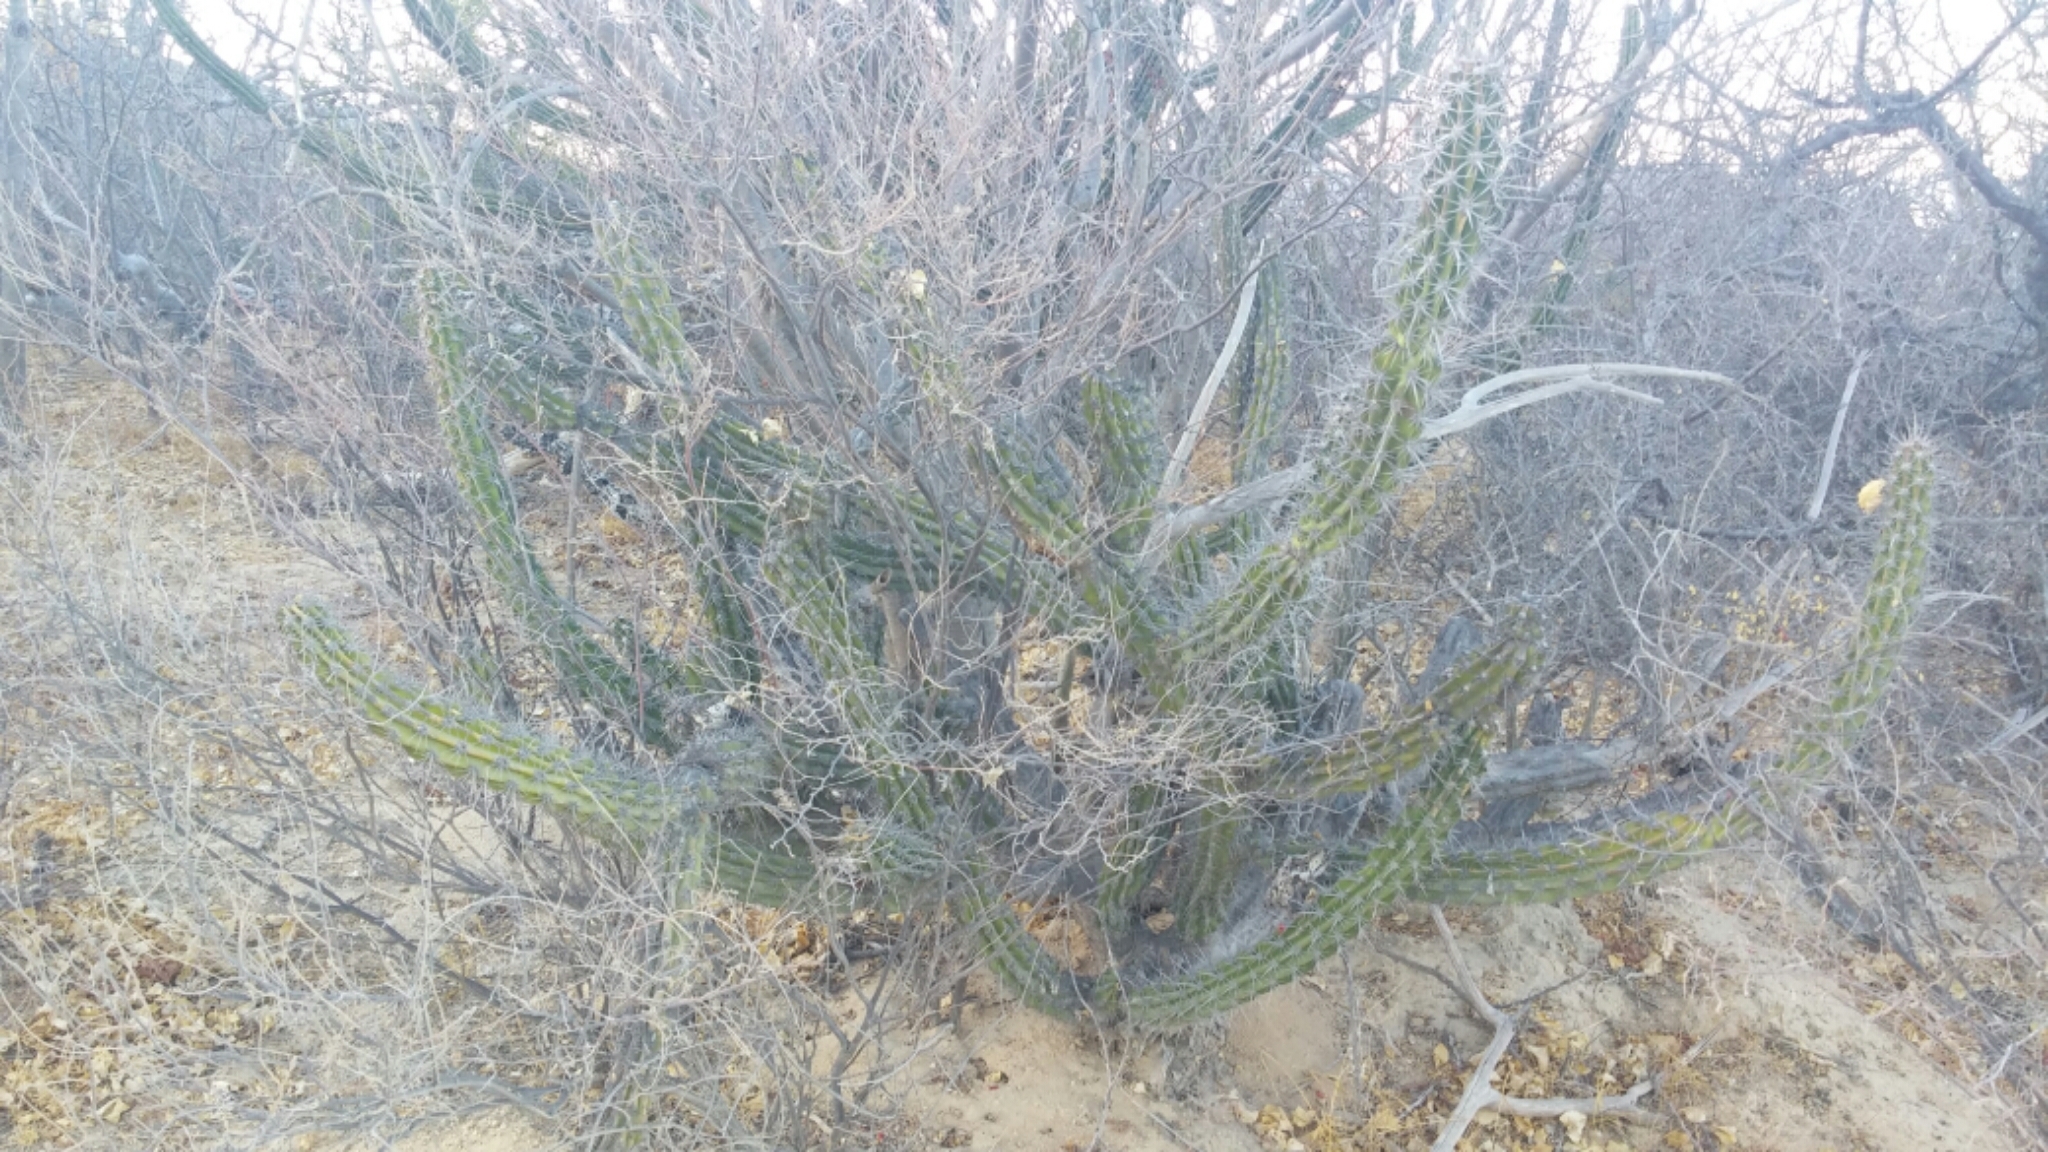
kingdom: Plantae
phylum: Tracheophyta
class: Magnoliopsida
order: Caryophyllales
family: Cactaceae
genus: Stenocereus
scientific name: Stenocereus gummosus
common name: Dagger cactus
